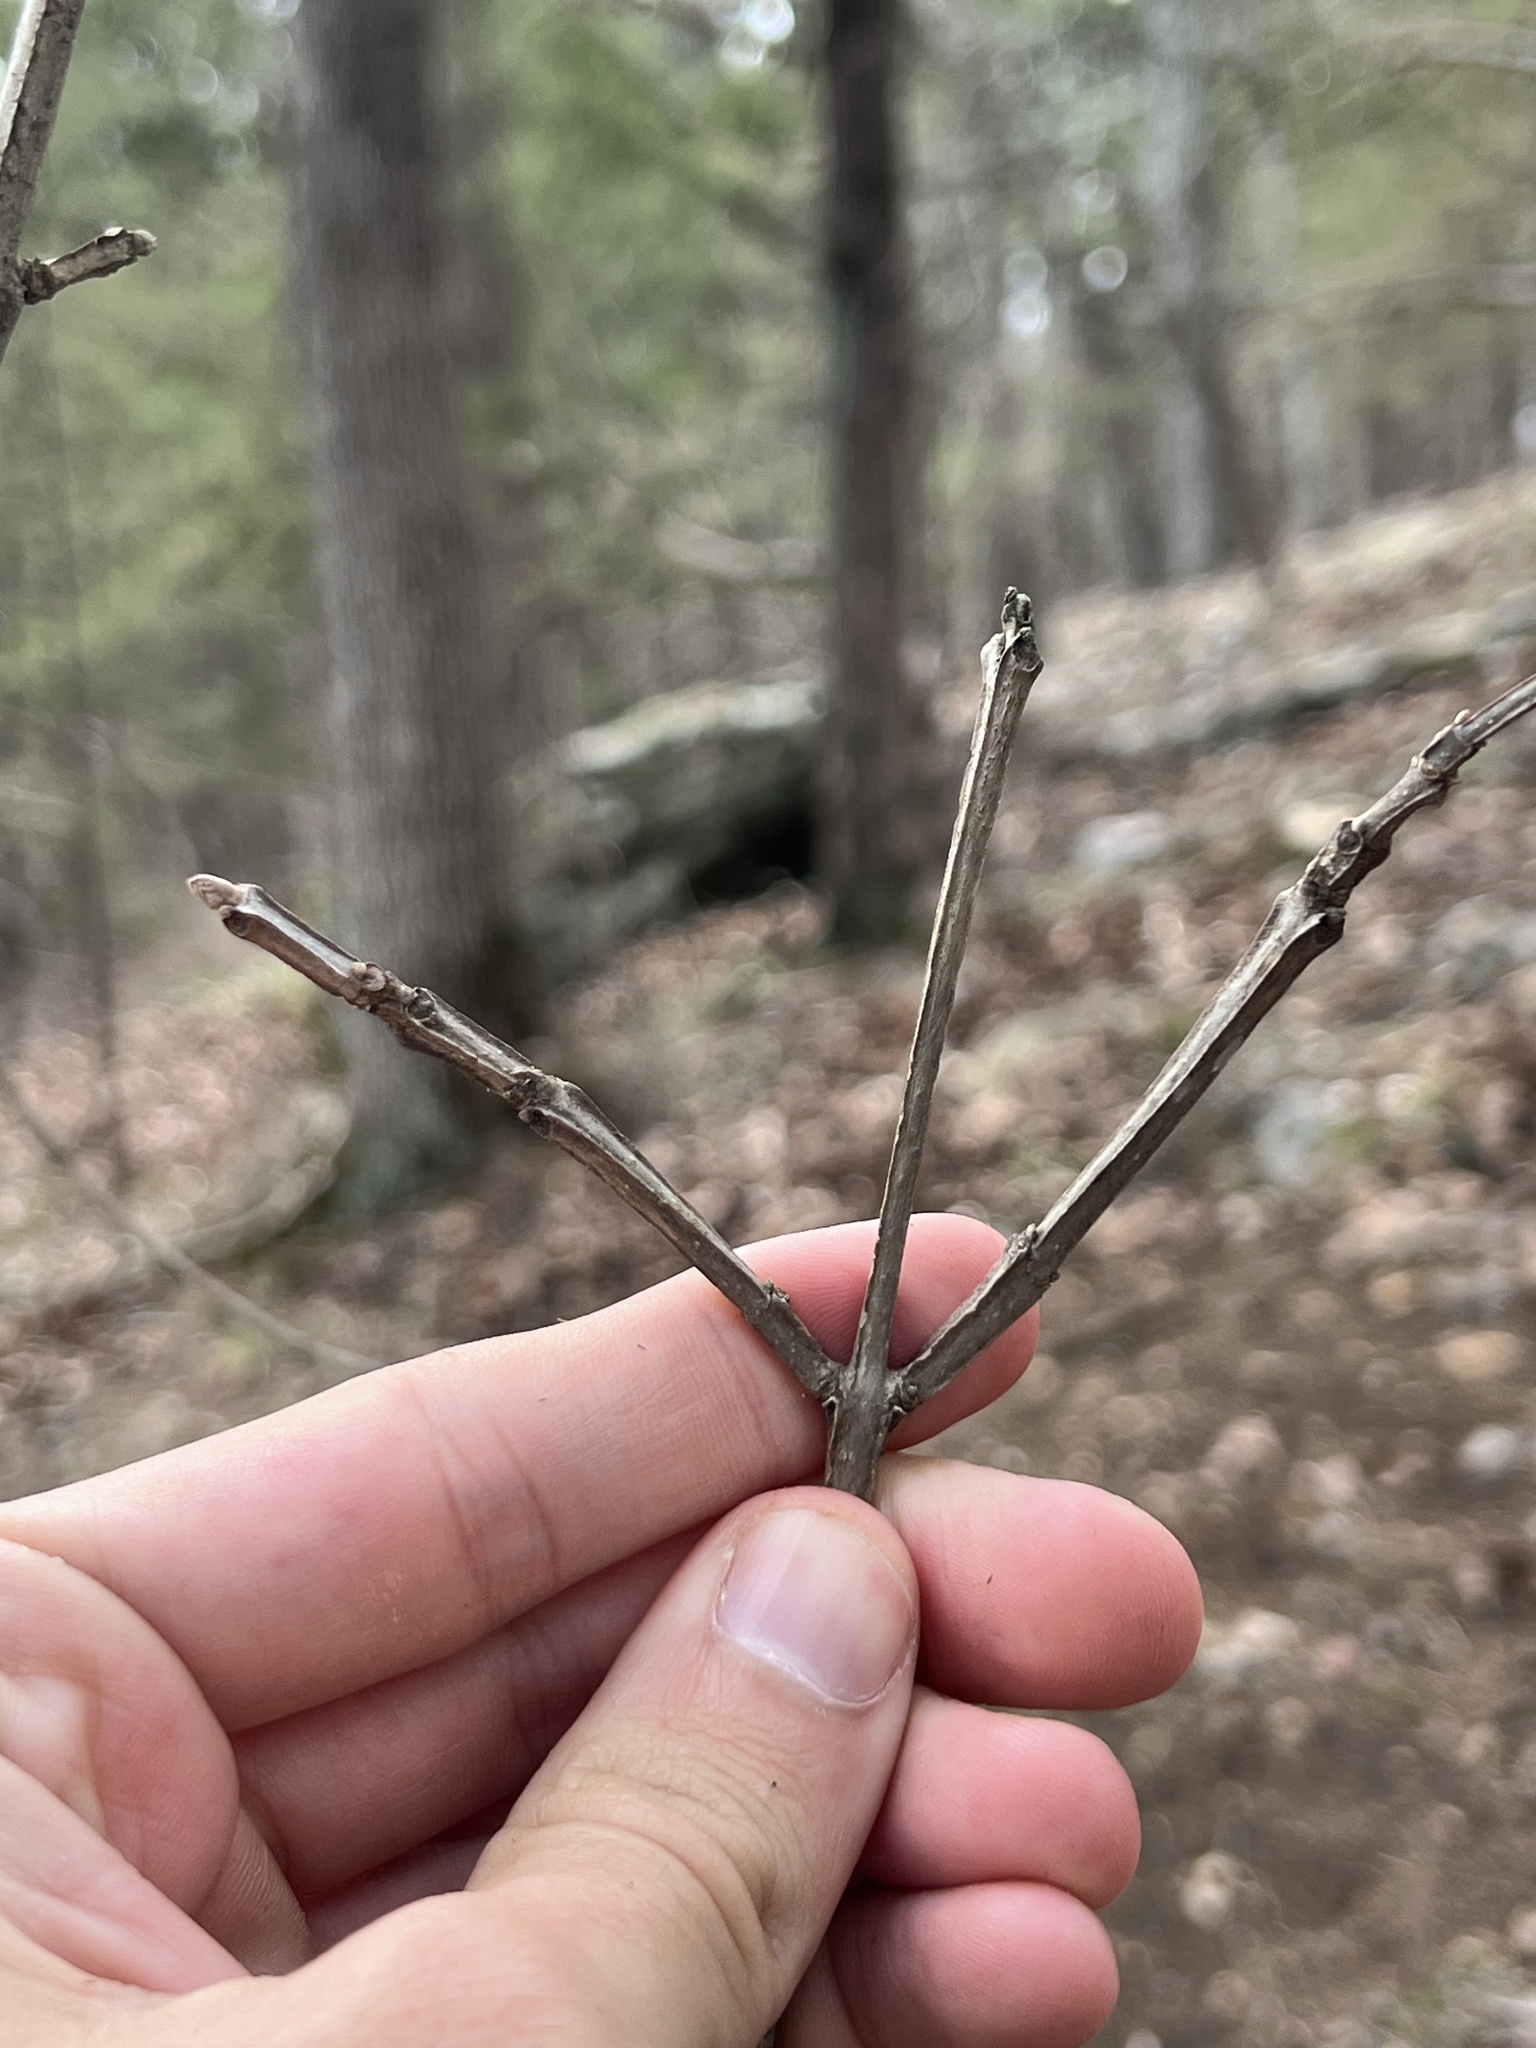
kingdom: Plantae
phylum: Tracheophyta
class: Magnoliopsida
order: Lamiales
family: Oleaceae
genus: Fraxinus
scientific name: Fraxinus quadrangulata
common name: Blue ash
